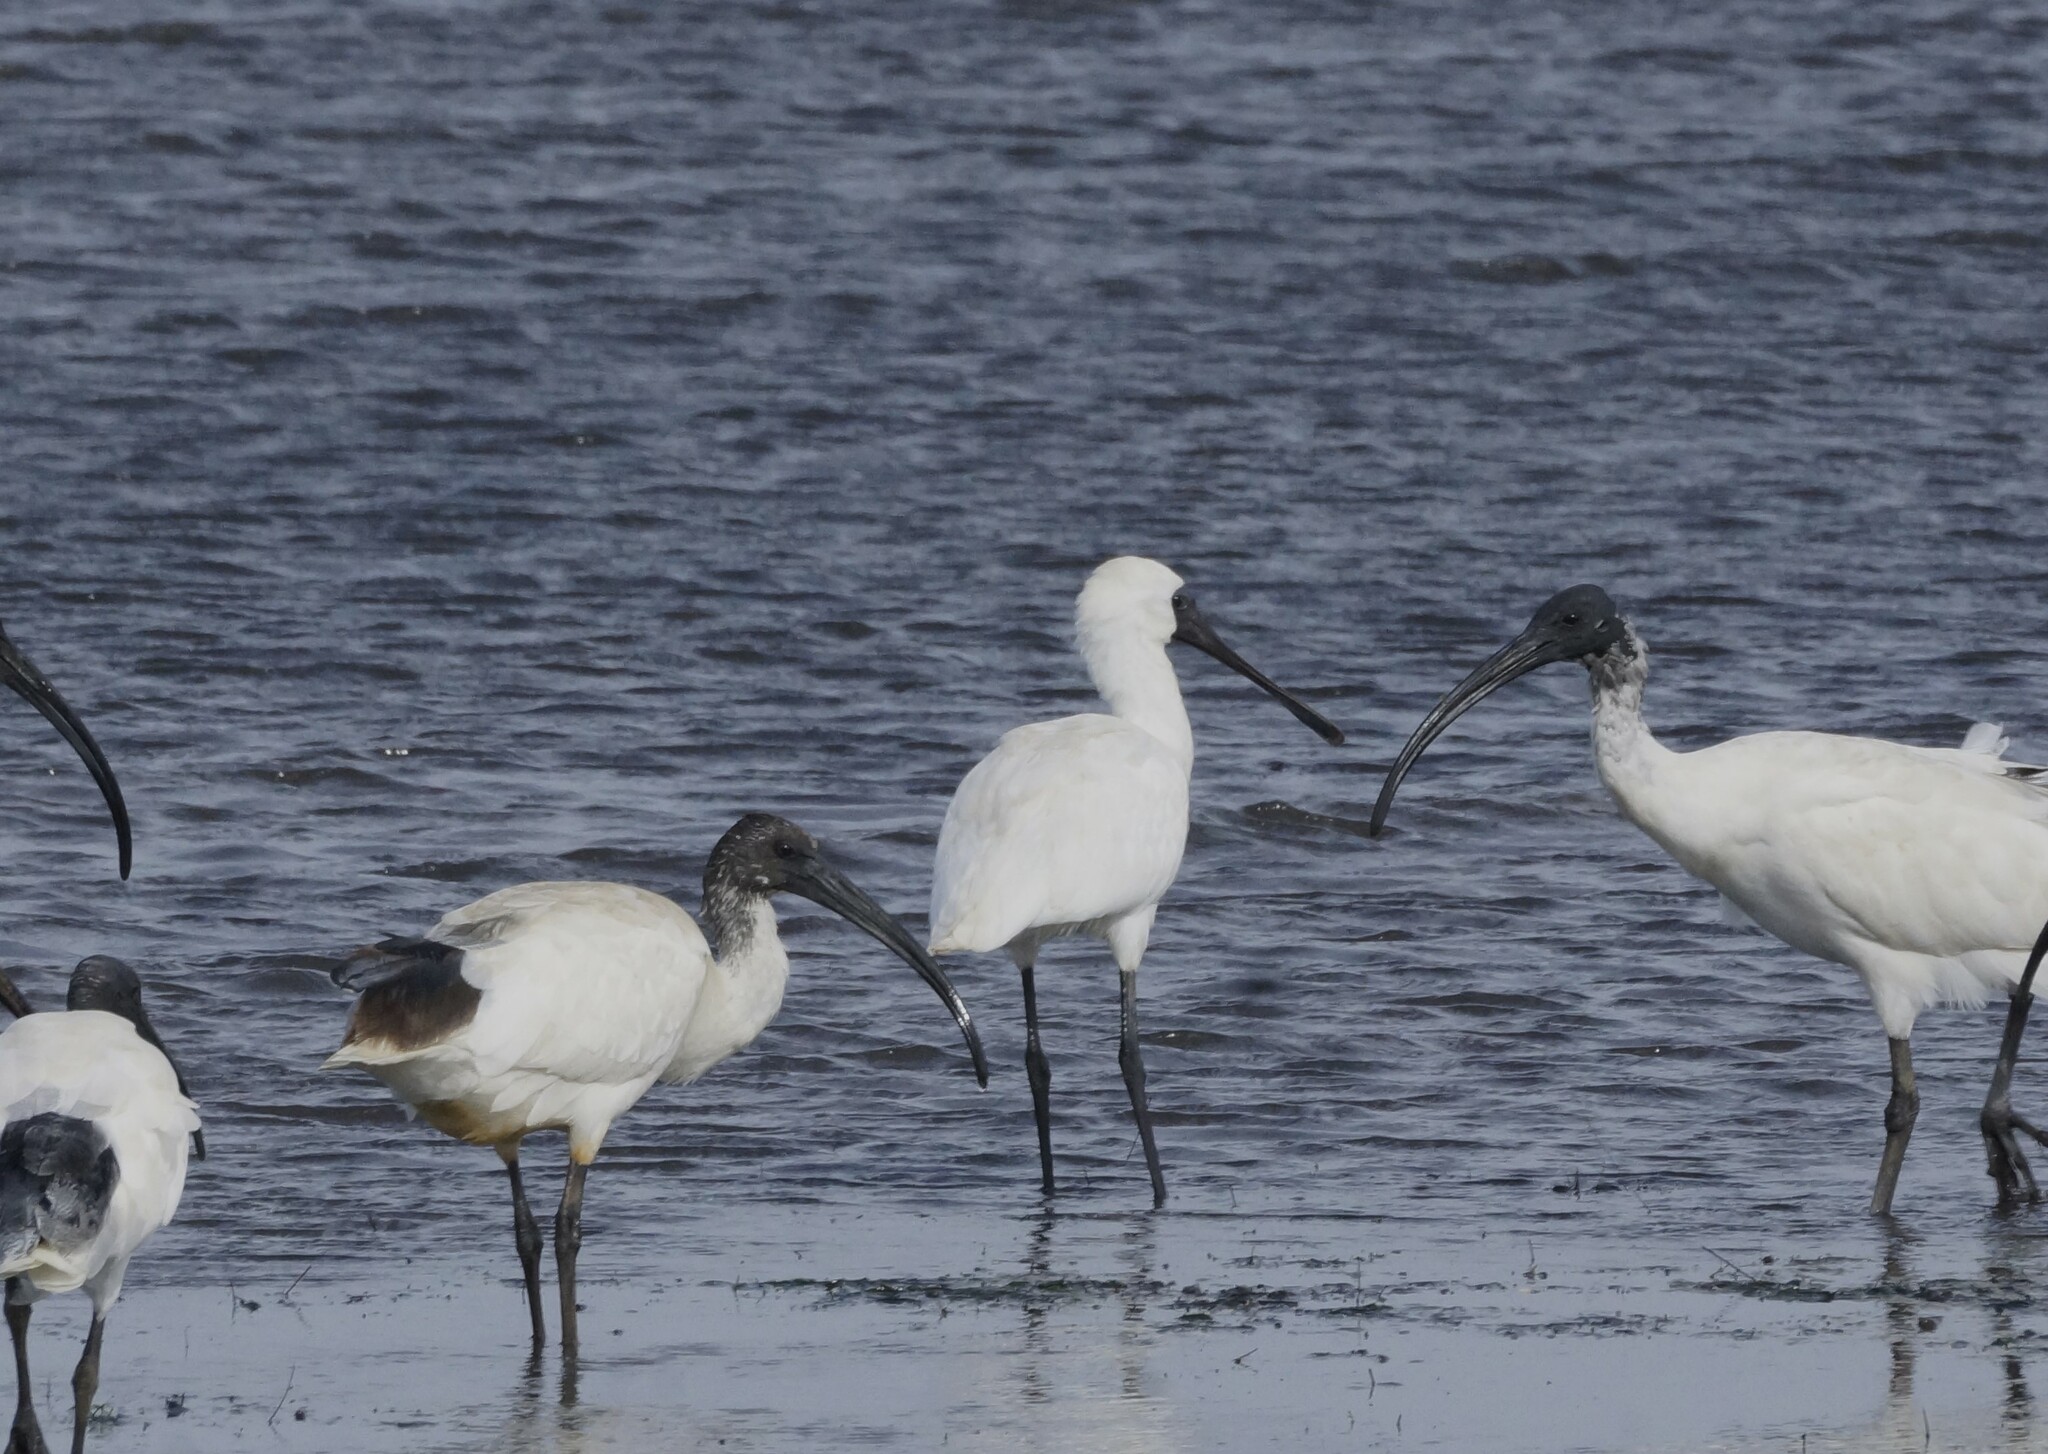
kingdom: Animalia
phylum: Chordata
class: Aves
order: Pelecaniformes
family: Threskiornithidae
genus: Platalea
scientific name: Platalea regia
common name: Royal spoonbill
